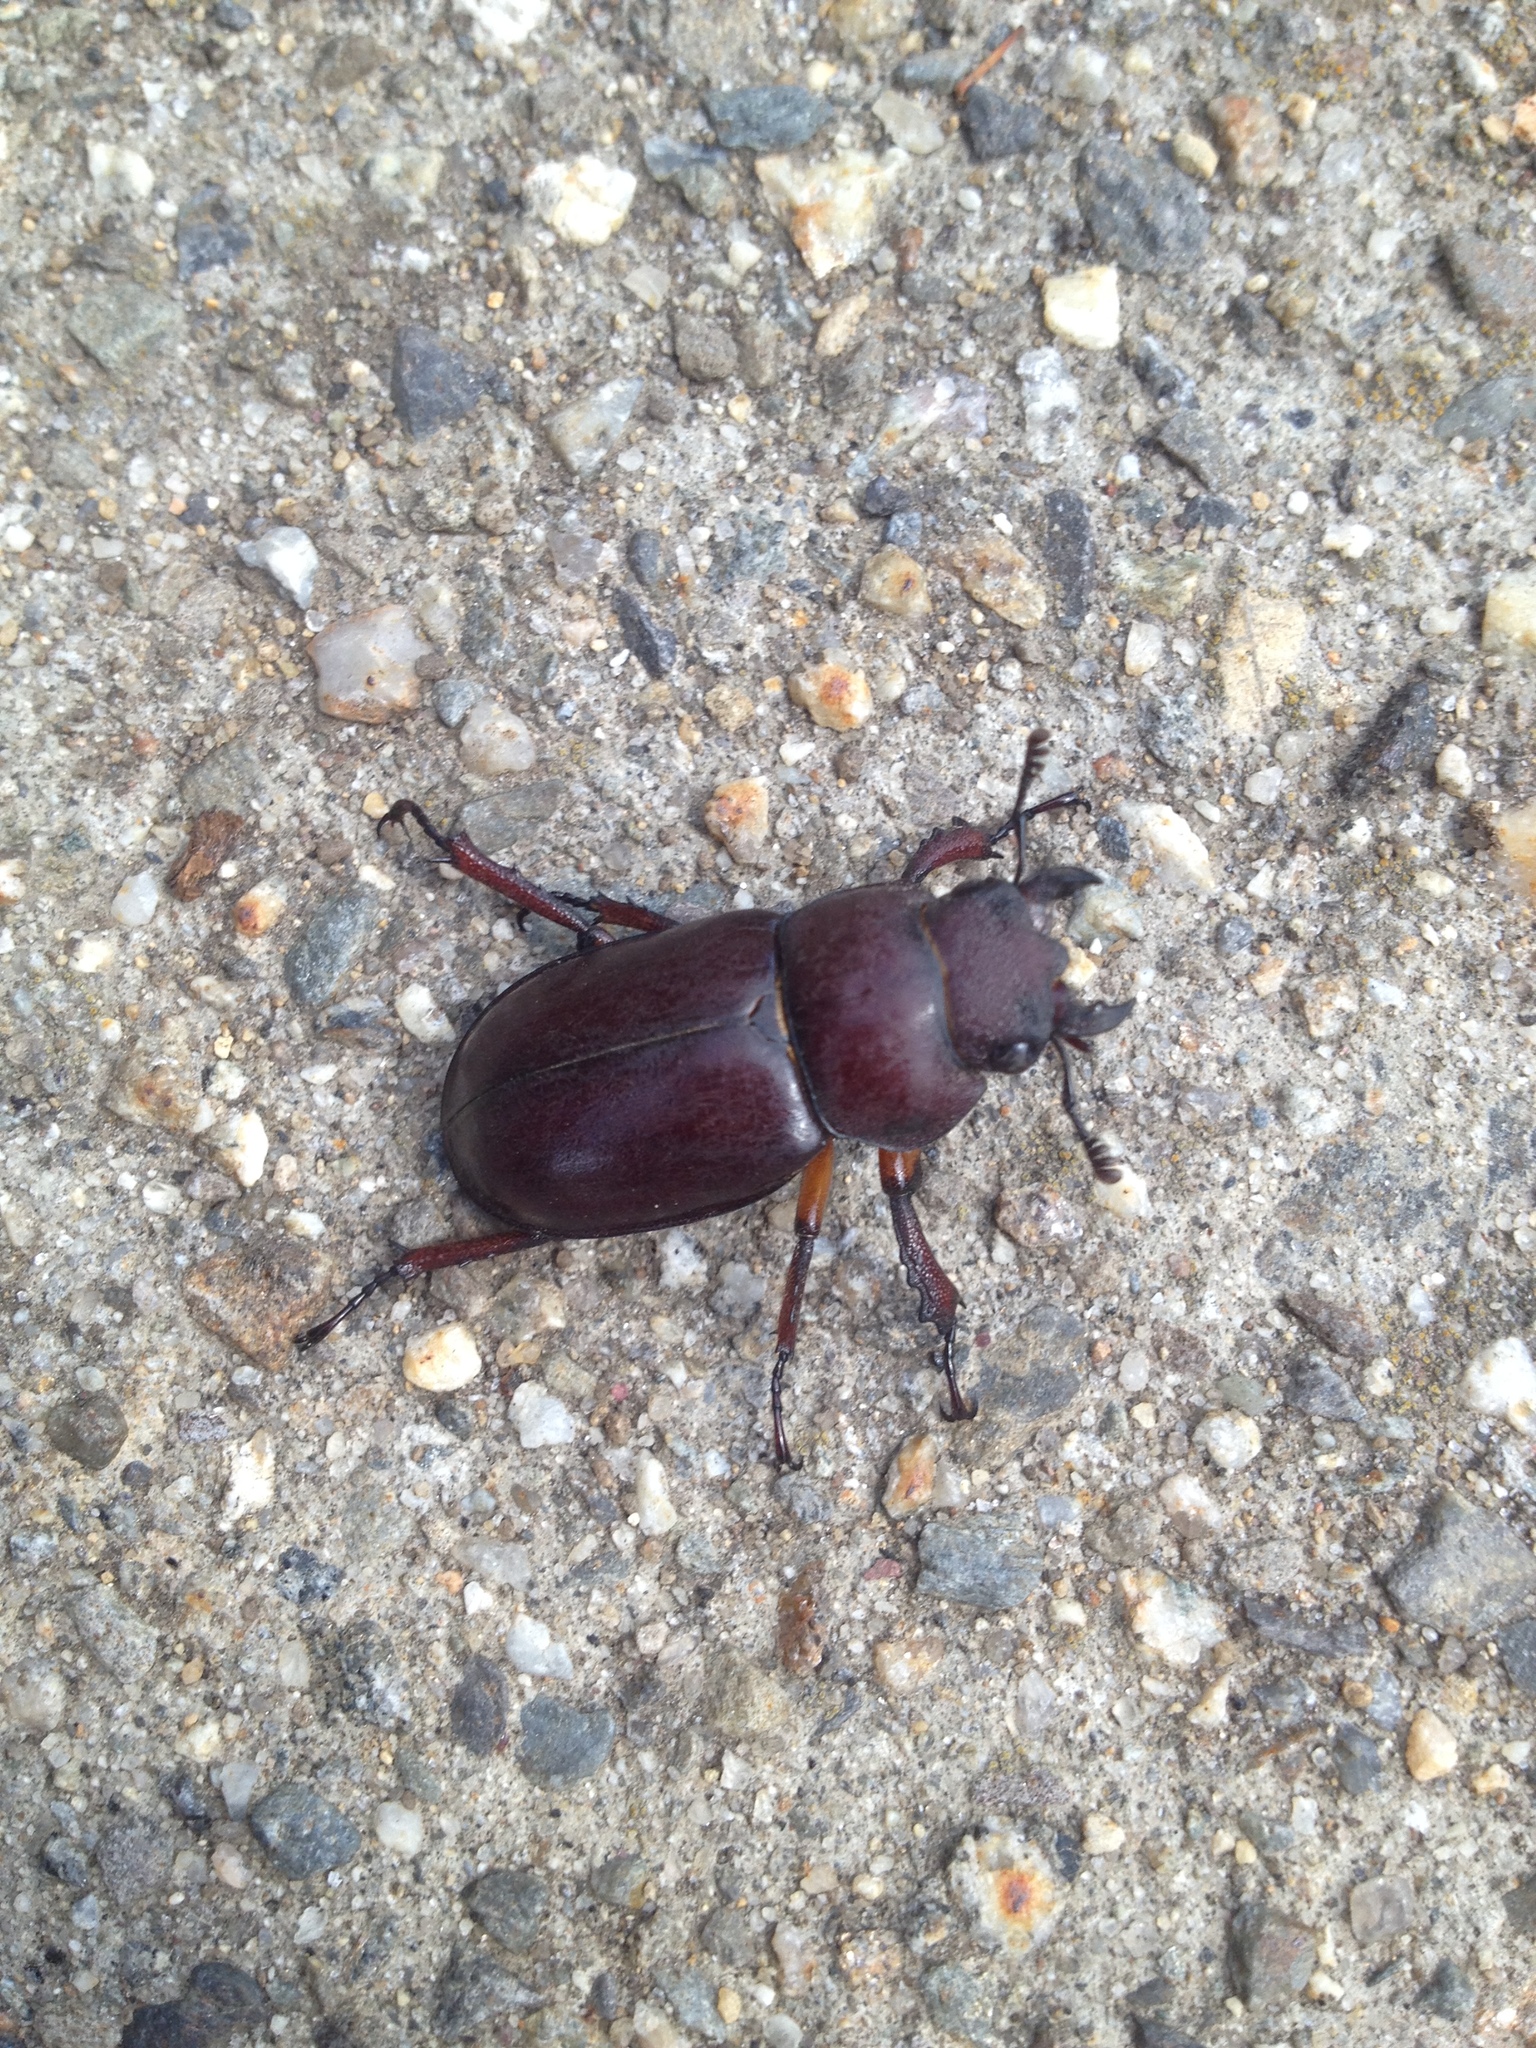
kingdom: Animalia
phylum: Arthropoda
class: Insecta
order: Coleoptera
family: Lucanidae
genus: Lucanus
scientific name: Lucanus capreolus
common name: Stag beetle
